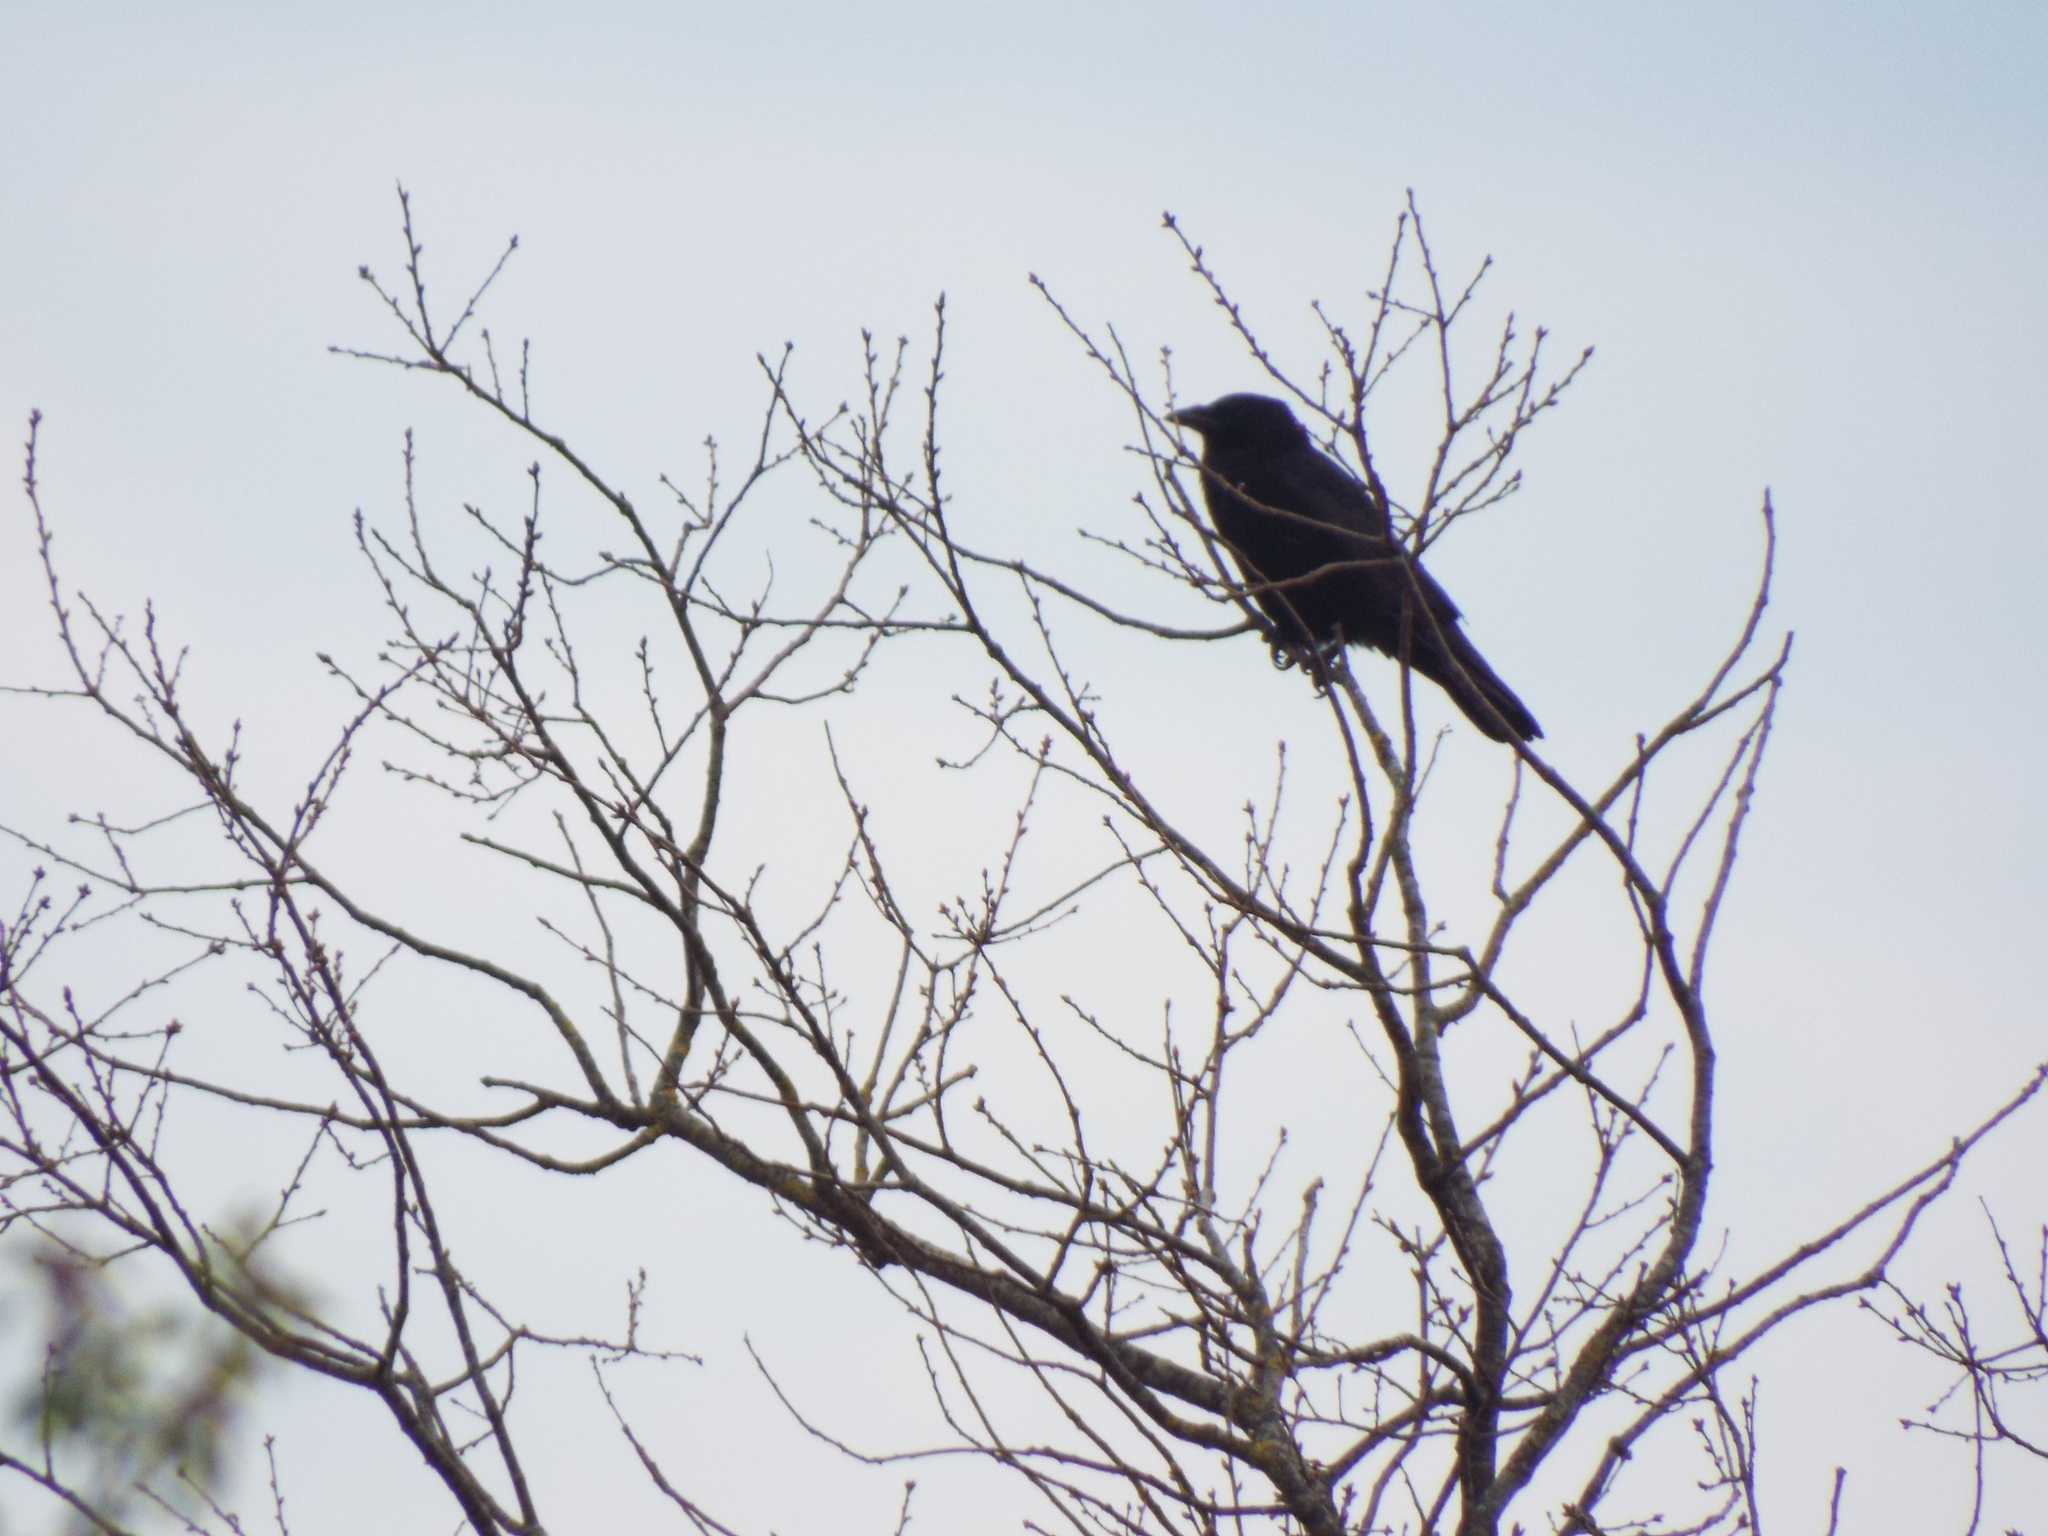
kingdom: Animalia
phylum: Chordata
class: Aves
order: Passeriformes
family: Corvidae
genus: Corvus
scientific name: Corvus corone
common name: Carrion crow
